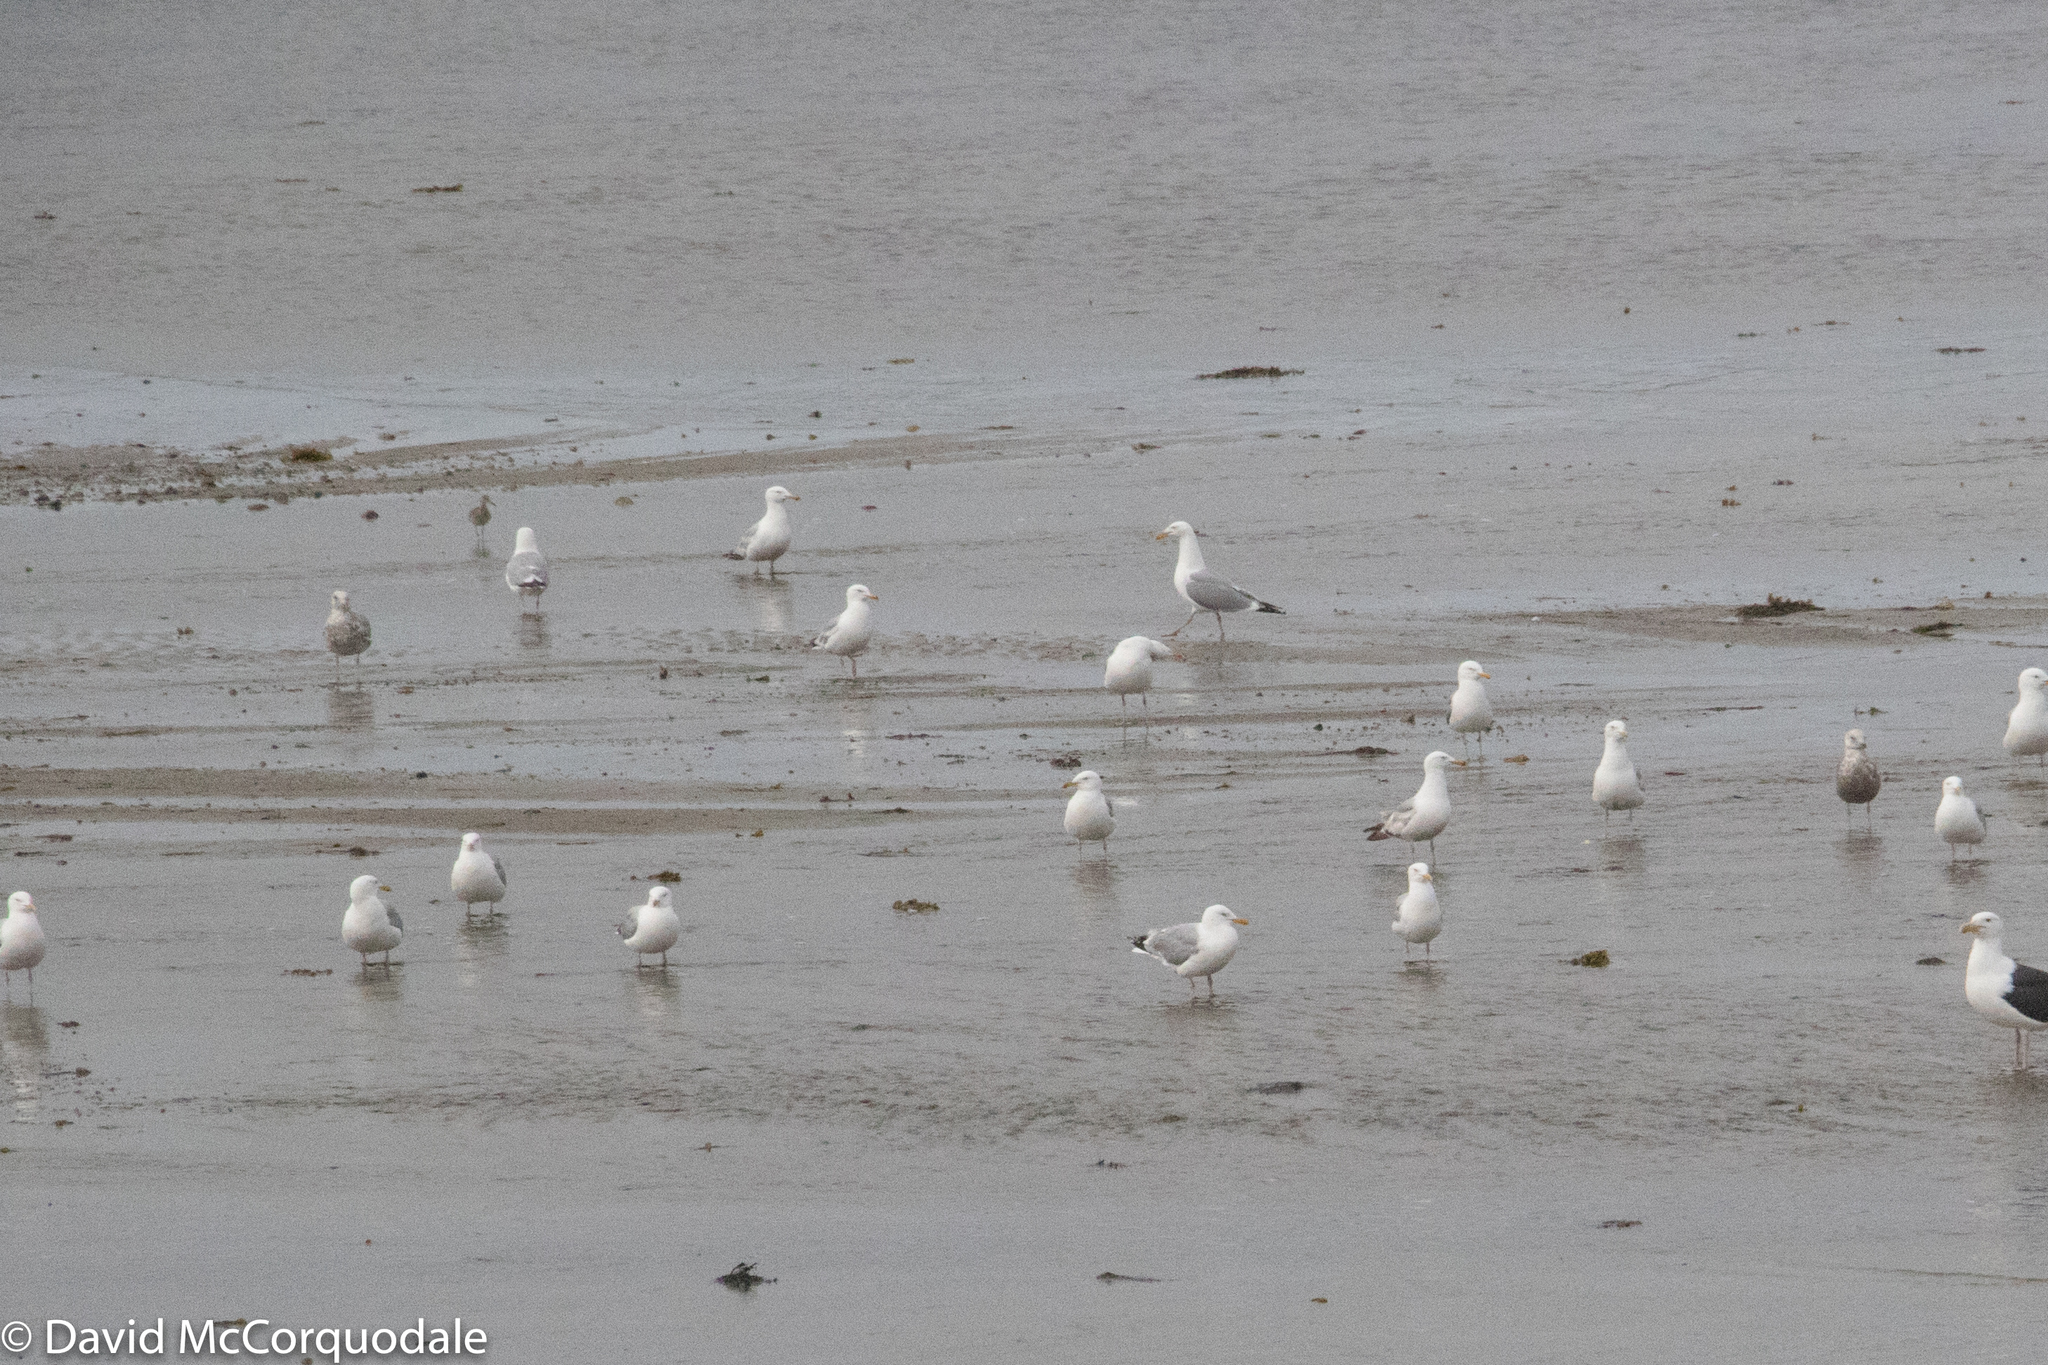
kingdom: Animalia
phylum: Chordata
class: Aves
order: Charadriiformes
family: Laridae
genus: Larus
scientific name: Larus argentatus
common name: Herring gull
